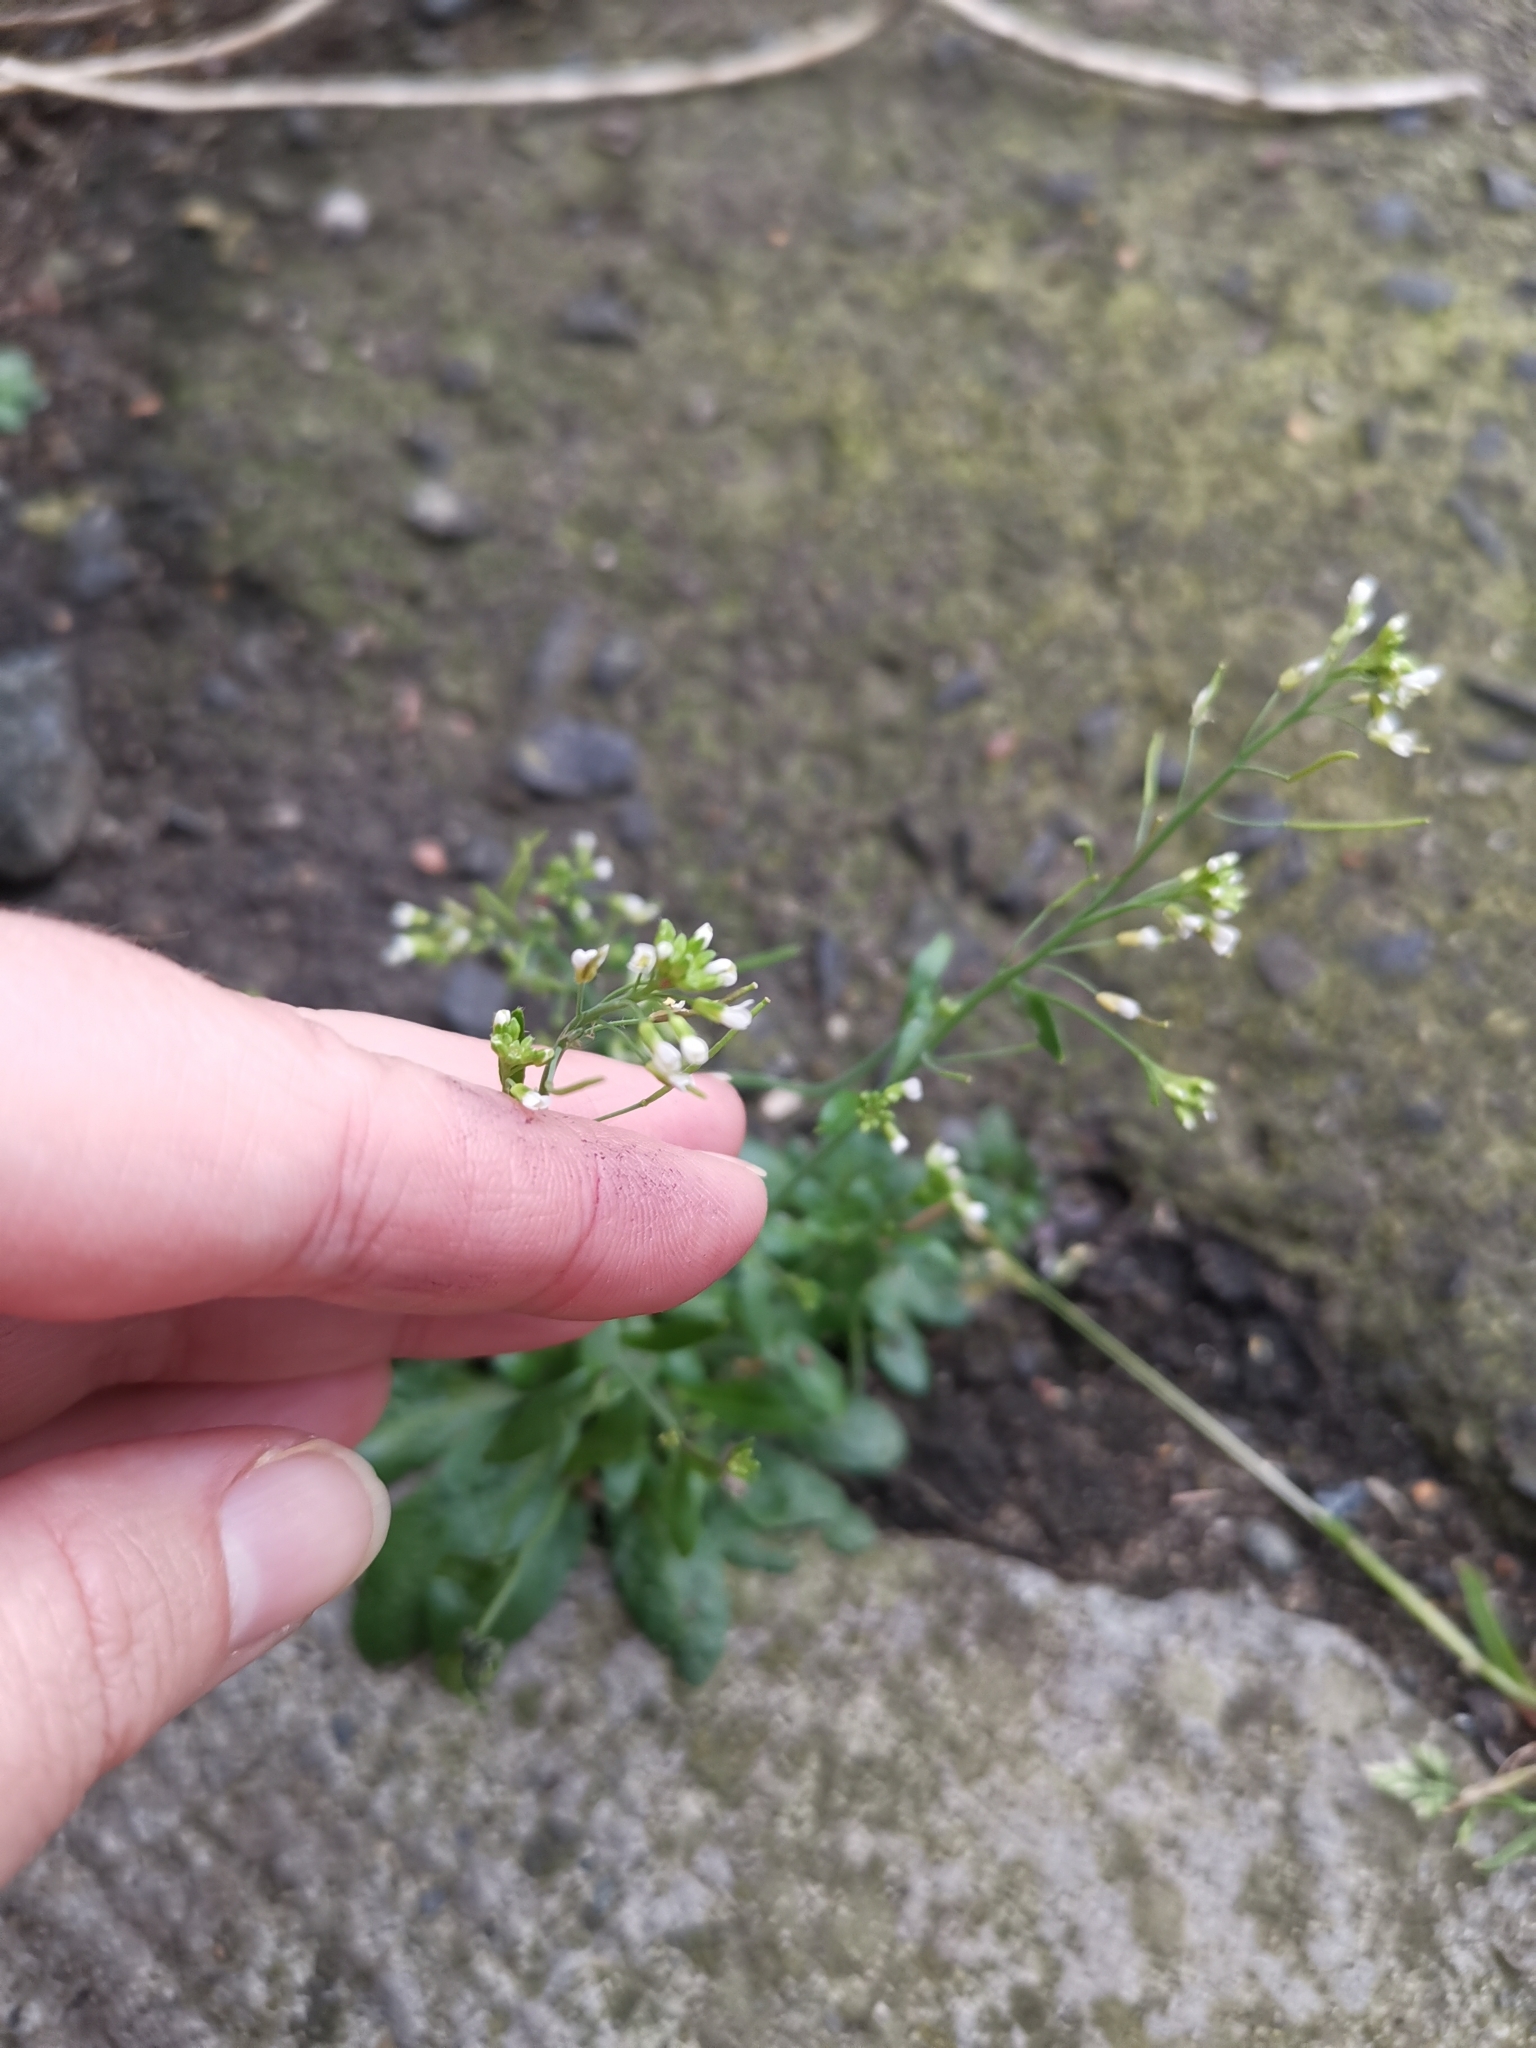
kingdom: Plantae
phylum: Tracheophyta
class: Magnoliopsida
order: Brassicales
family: Brassicaceae
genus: Arabidopsis
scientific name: Arabidopsis thaliana
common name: Thale cress
